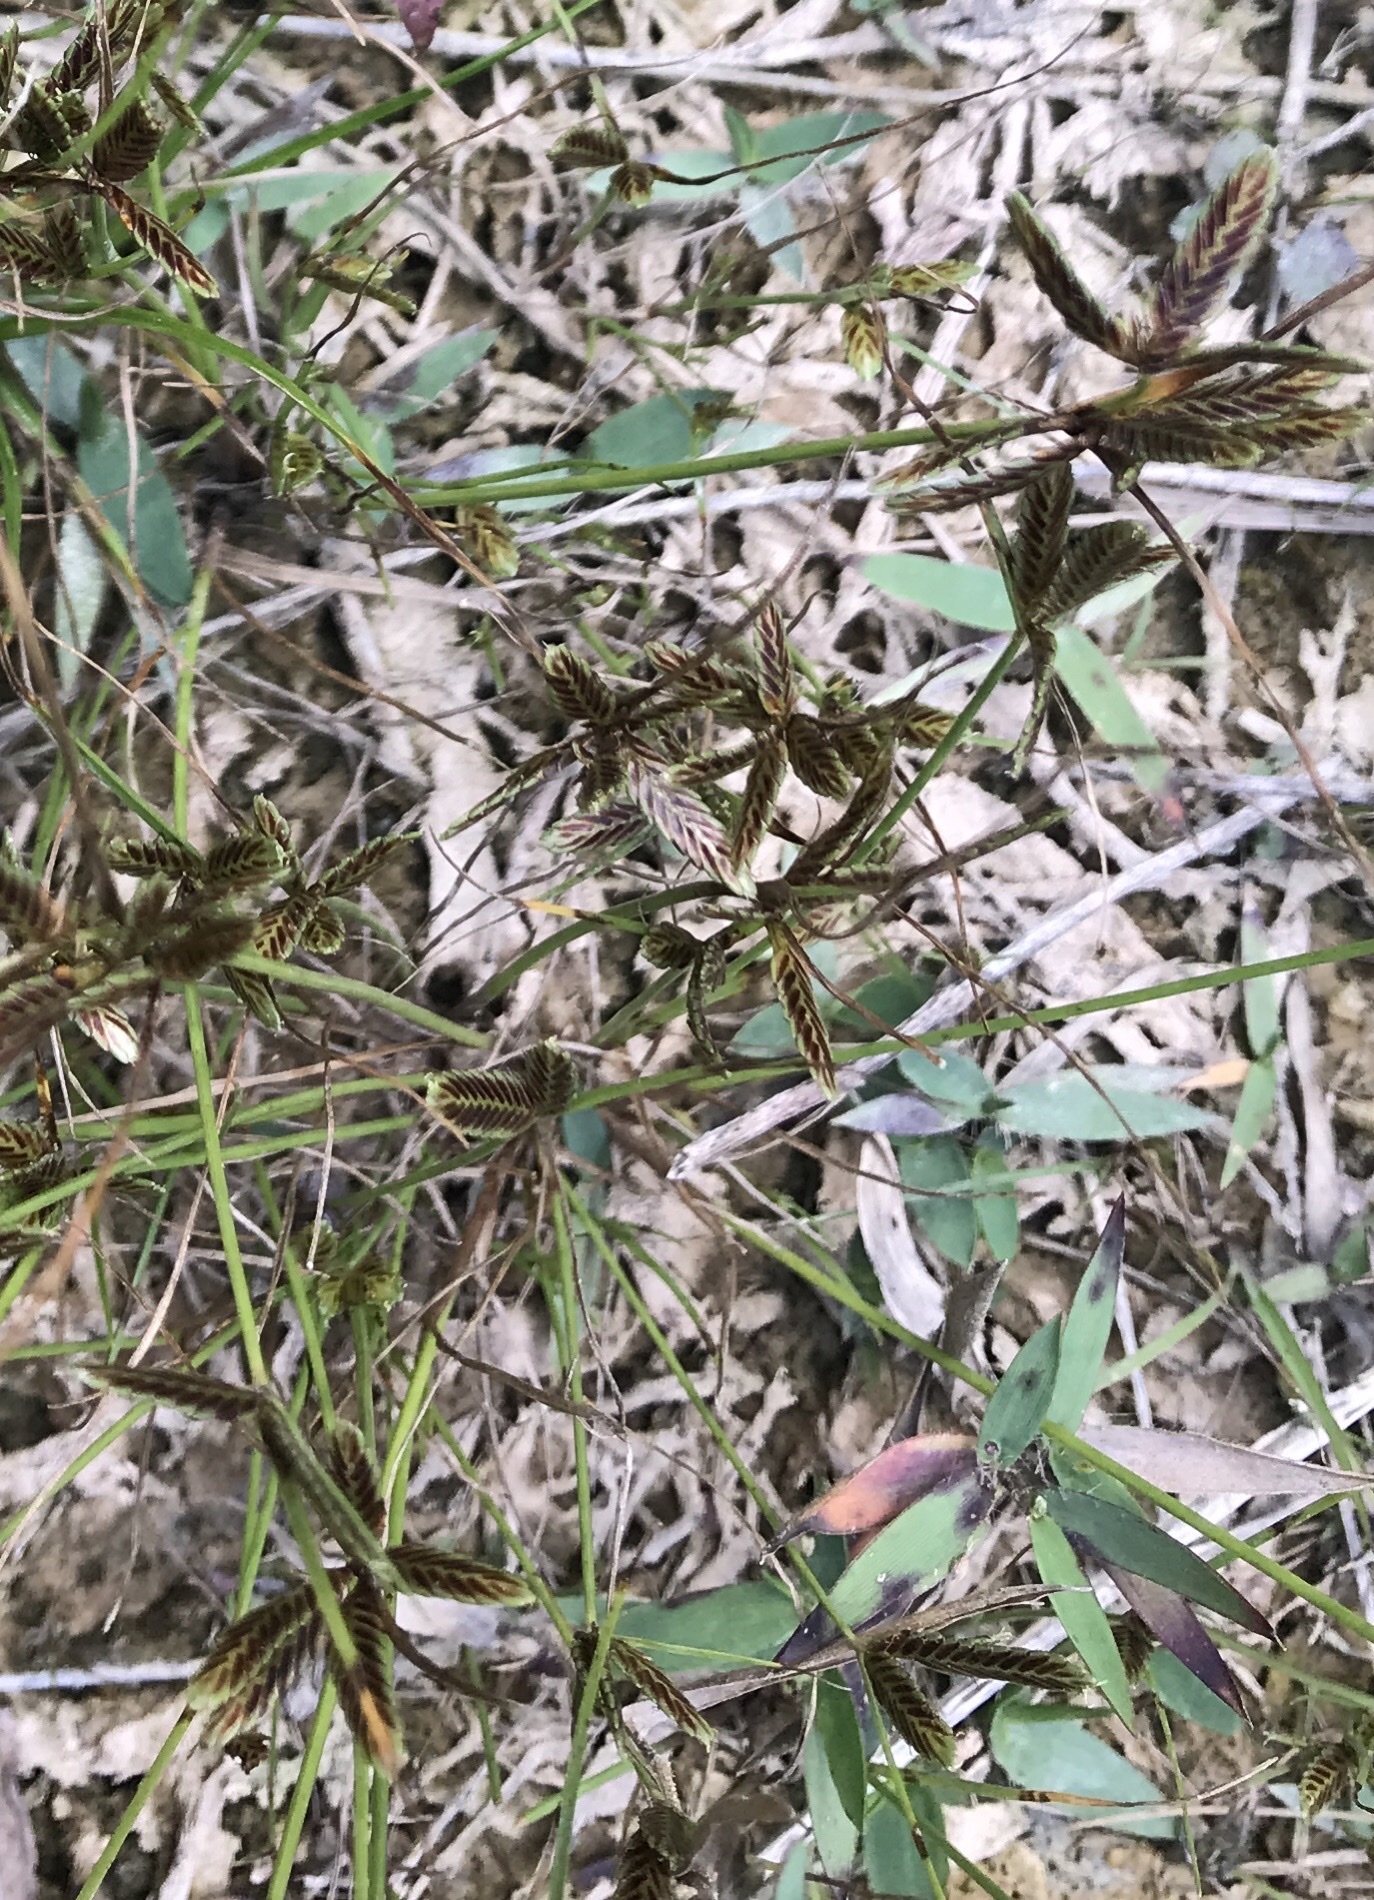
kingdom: Plantae
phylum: Tracheophyta
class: Liliopsida
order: Poales
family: Cyperaceae
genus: Cyperus
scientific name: Cyperus bipartitus
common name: Brook flatsedge
